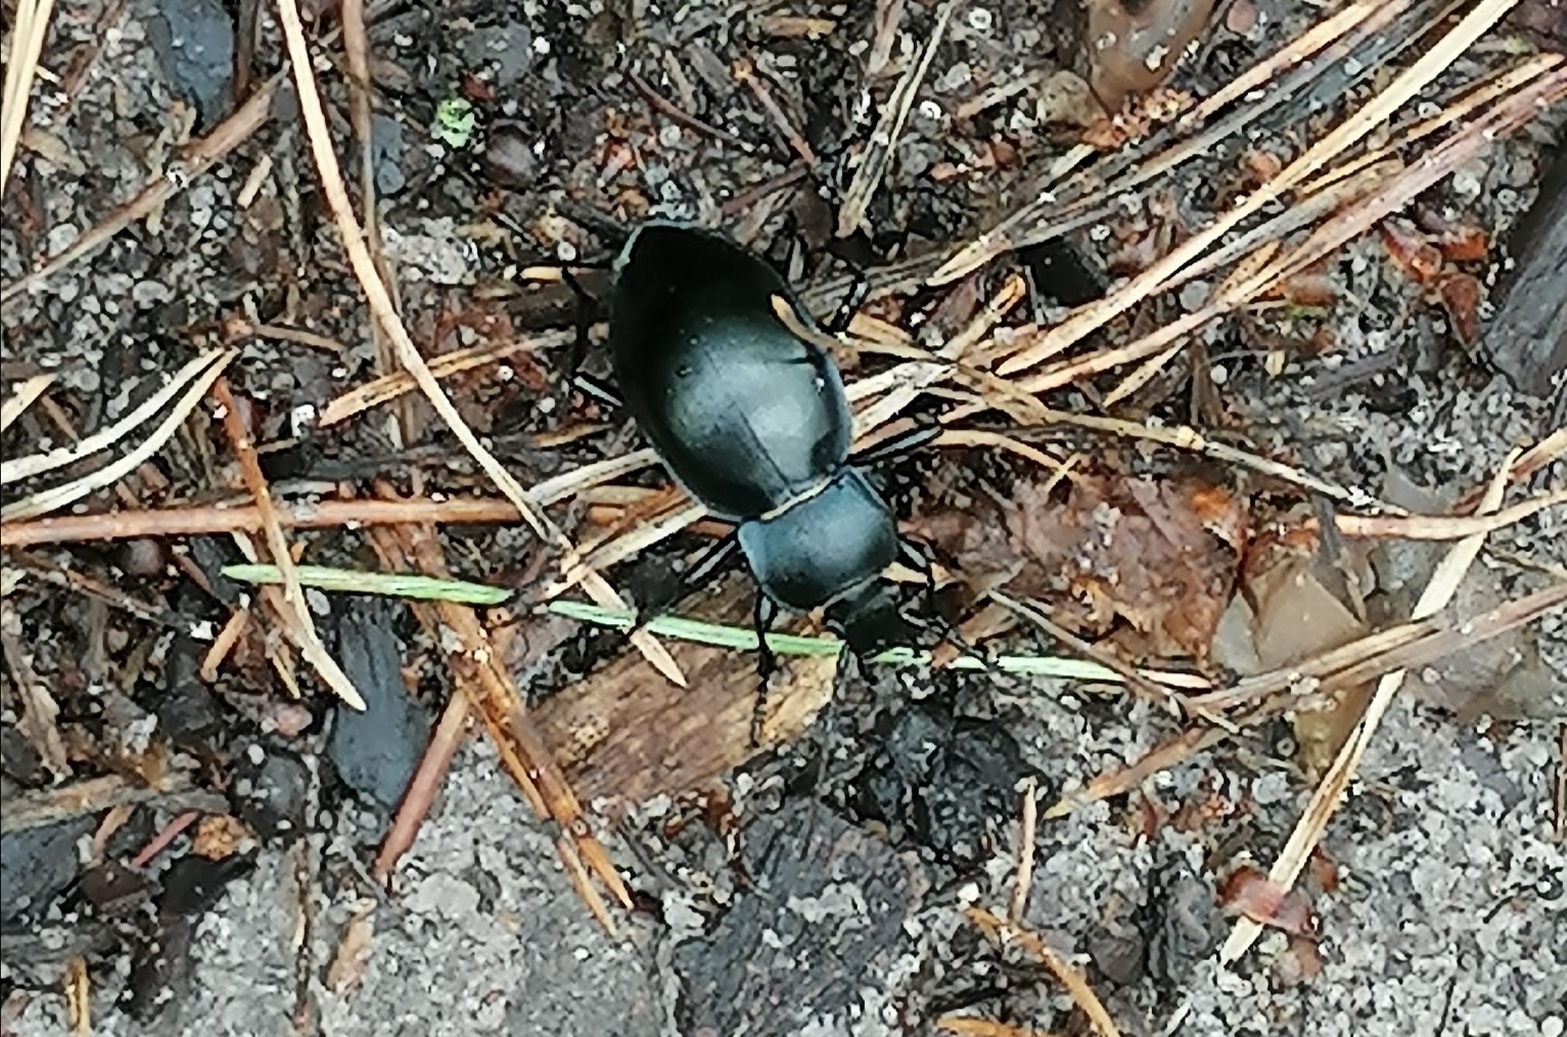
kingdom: Animalia
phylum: Arthropoda
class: Insecta
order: Coleoptera
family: Carabidae
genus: Carabus
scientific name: Carabus glabratus
